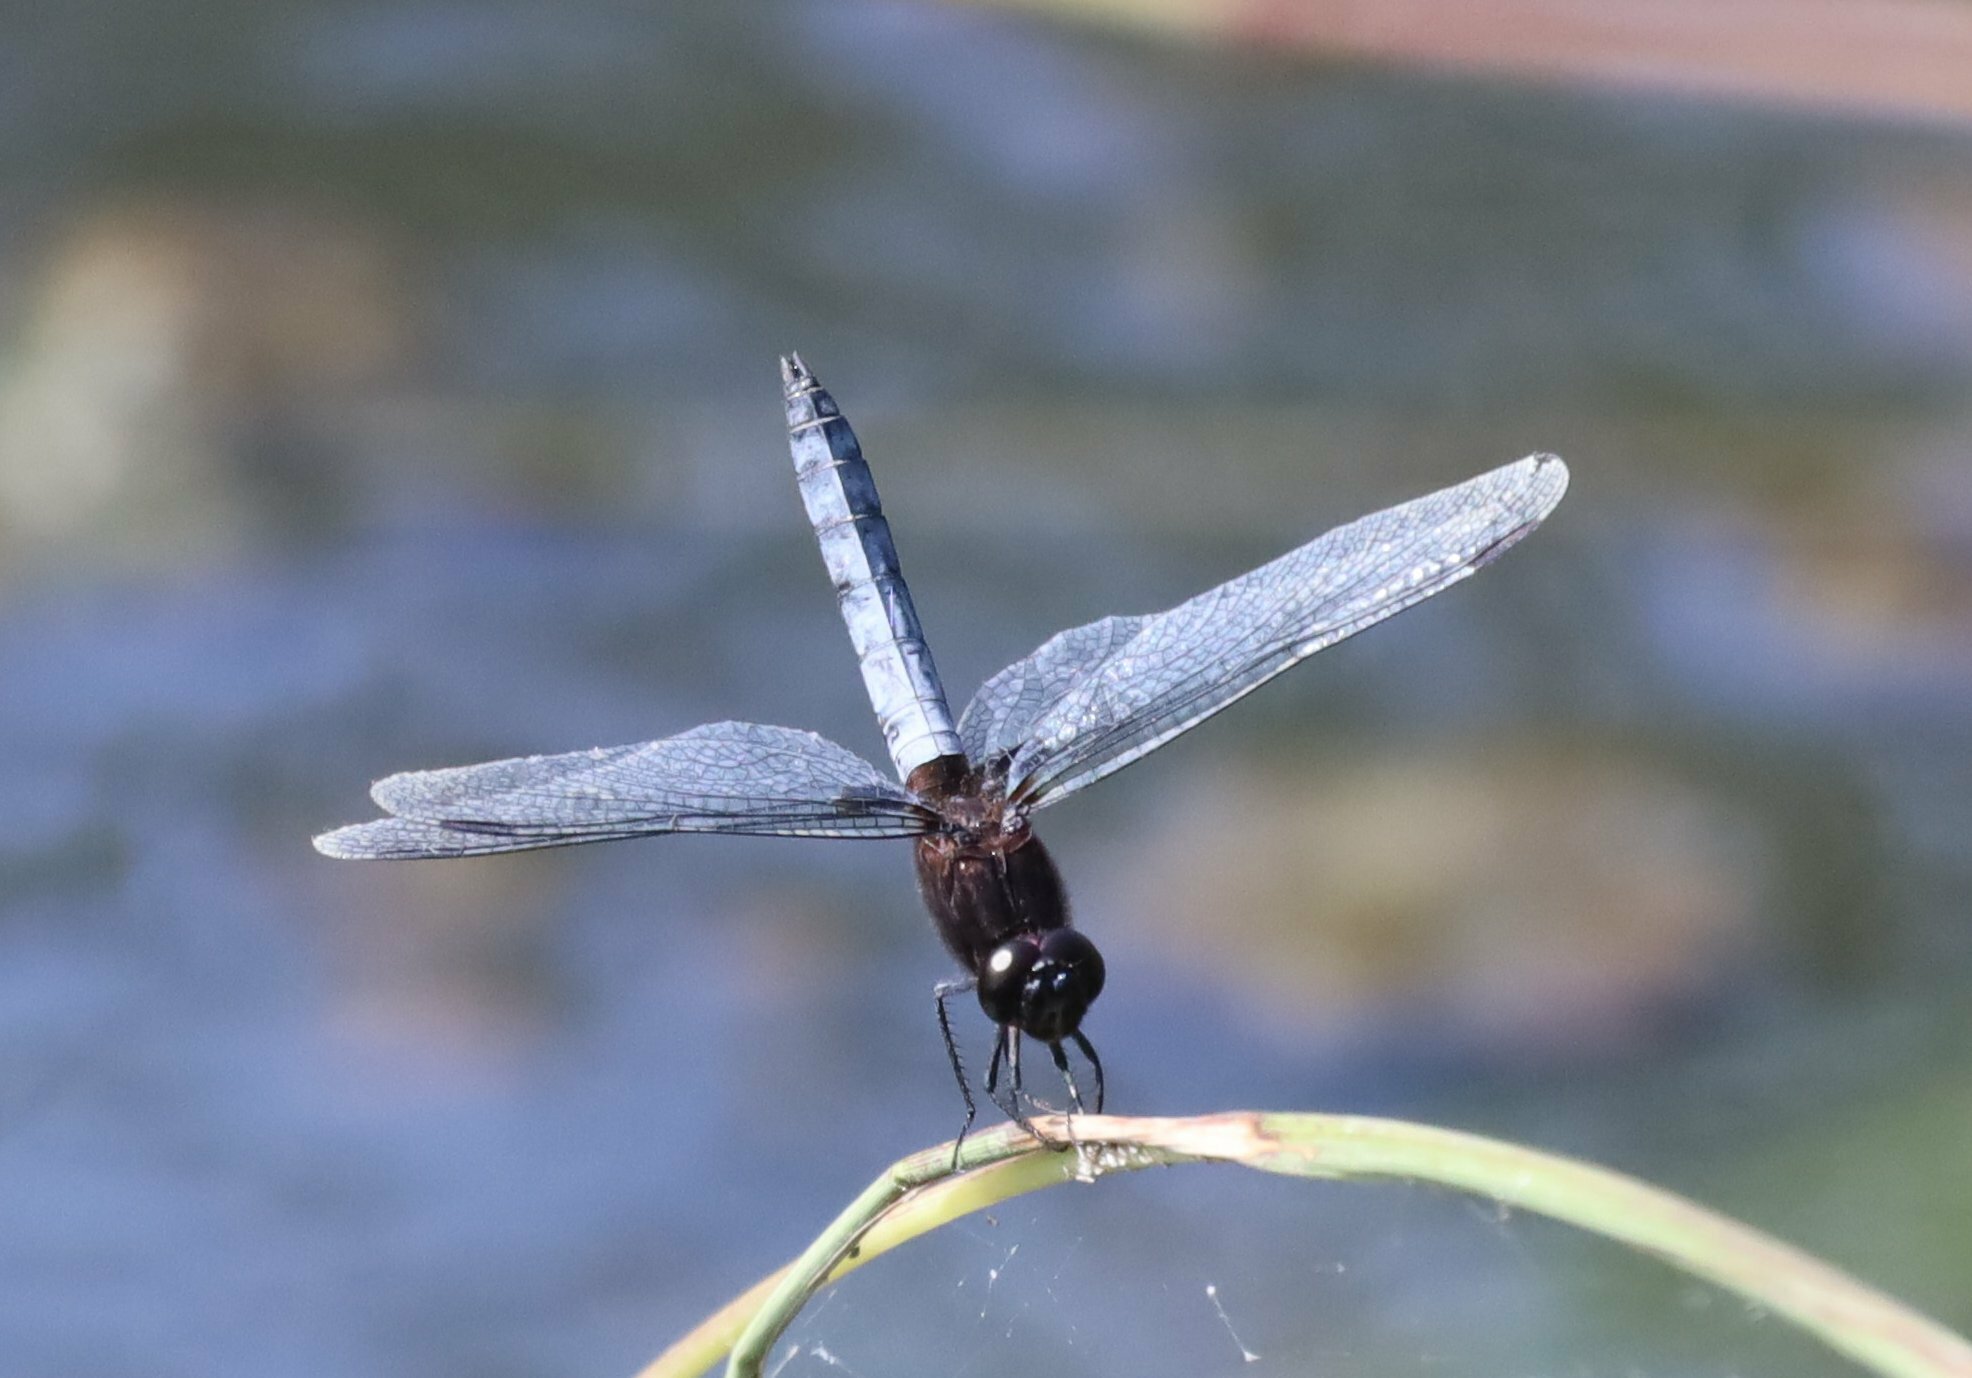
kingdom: Animalia
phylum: Arthropoda
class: Insecta
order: Odonata
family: Libellulidae
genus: Erythrodiplax
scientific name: Erythrodiplax connata
